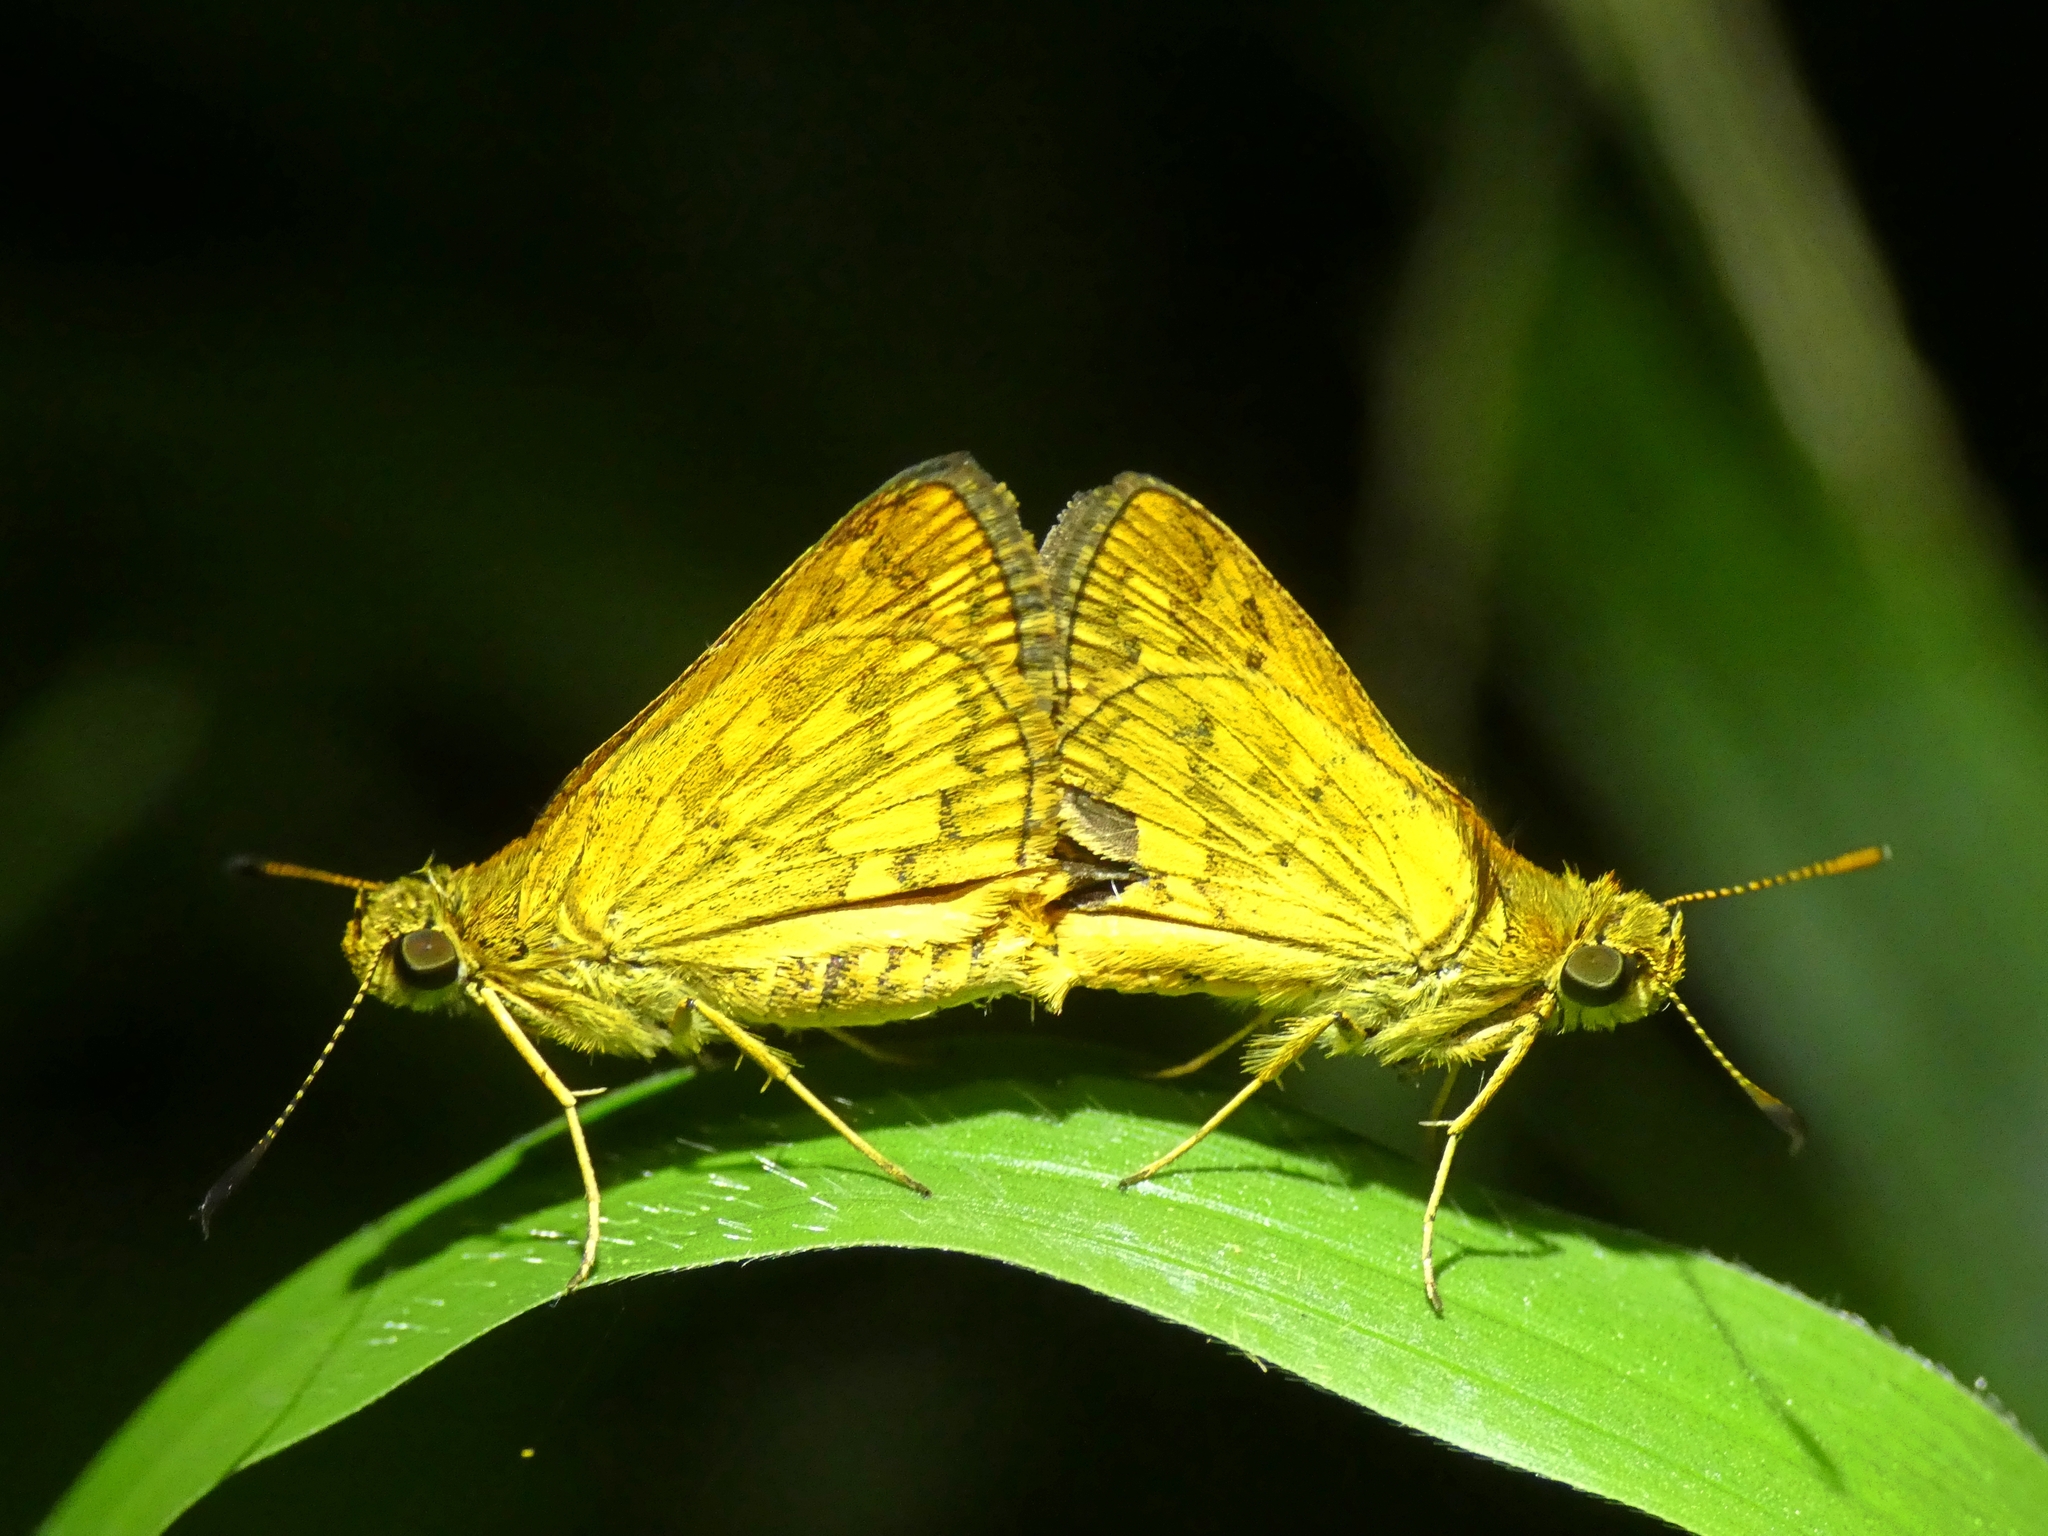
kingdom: Animalia
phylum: Arthropoda
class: Insecta
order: Lepidoptera
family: Hesperiidae
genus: Suniana
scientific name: Suniana sunias
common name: Wide-brand grass-dart
